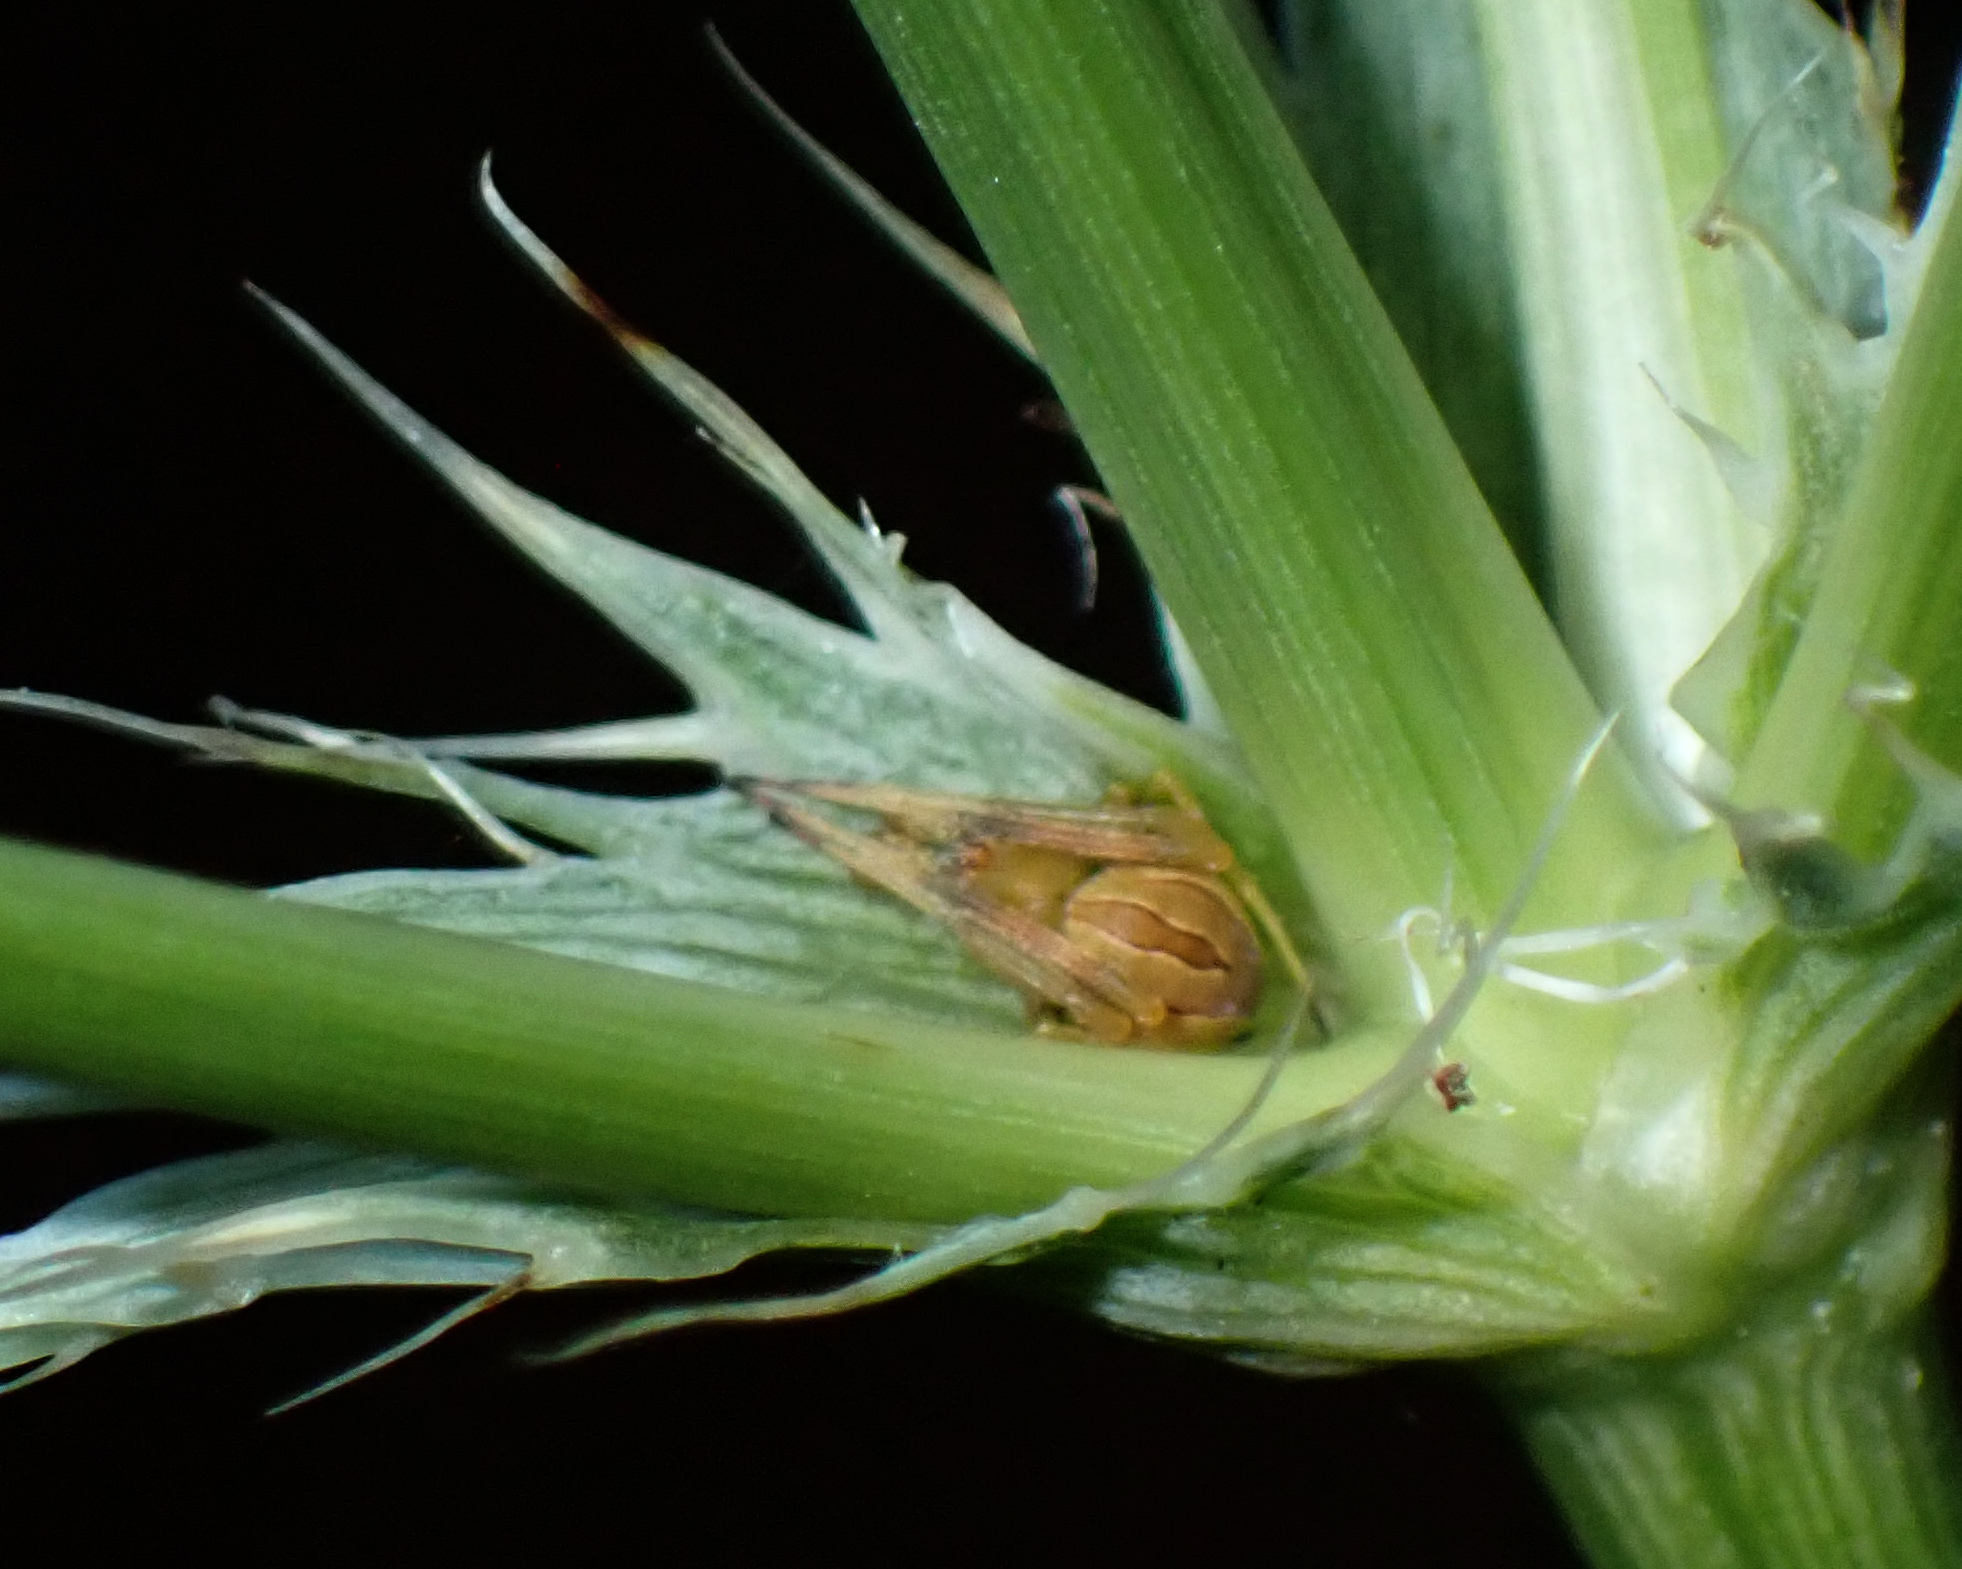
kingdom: Animalia
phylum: Arthropoda
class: Arachnida
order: Araneae
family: Araneidae
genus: Acacesia
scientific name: Acacesia hamata
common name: Orb weavers
